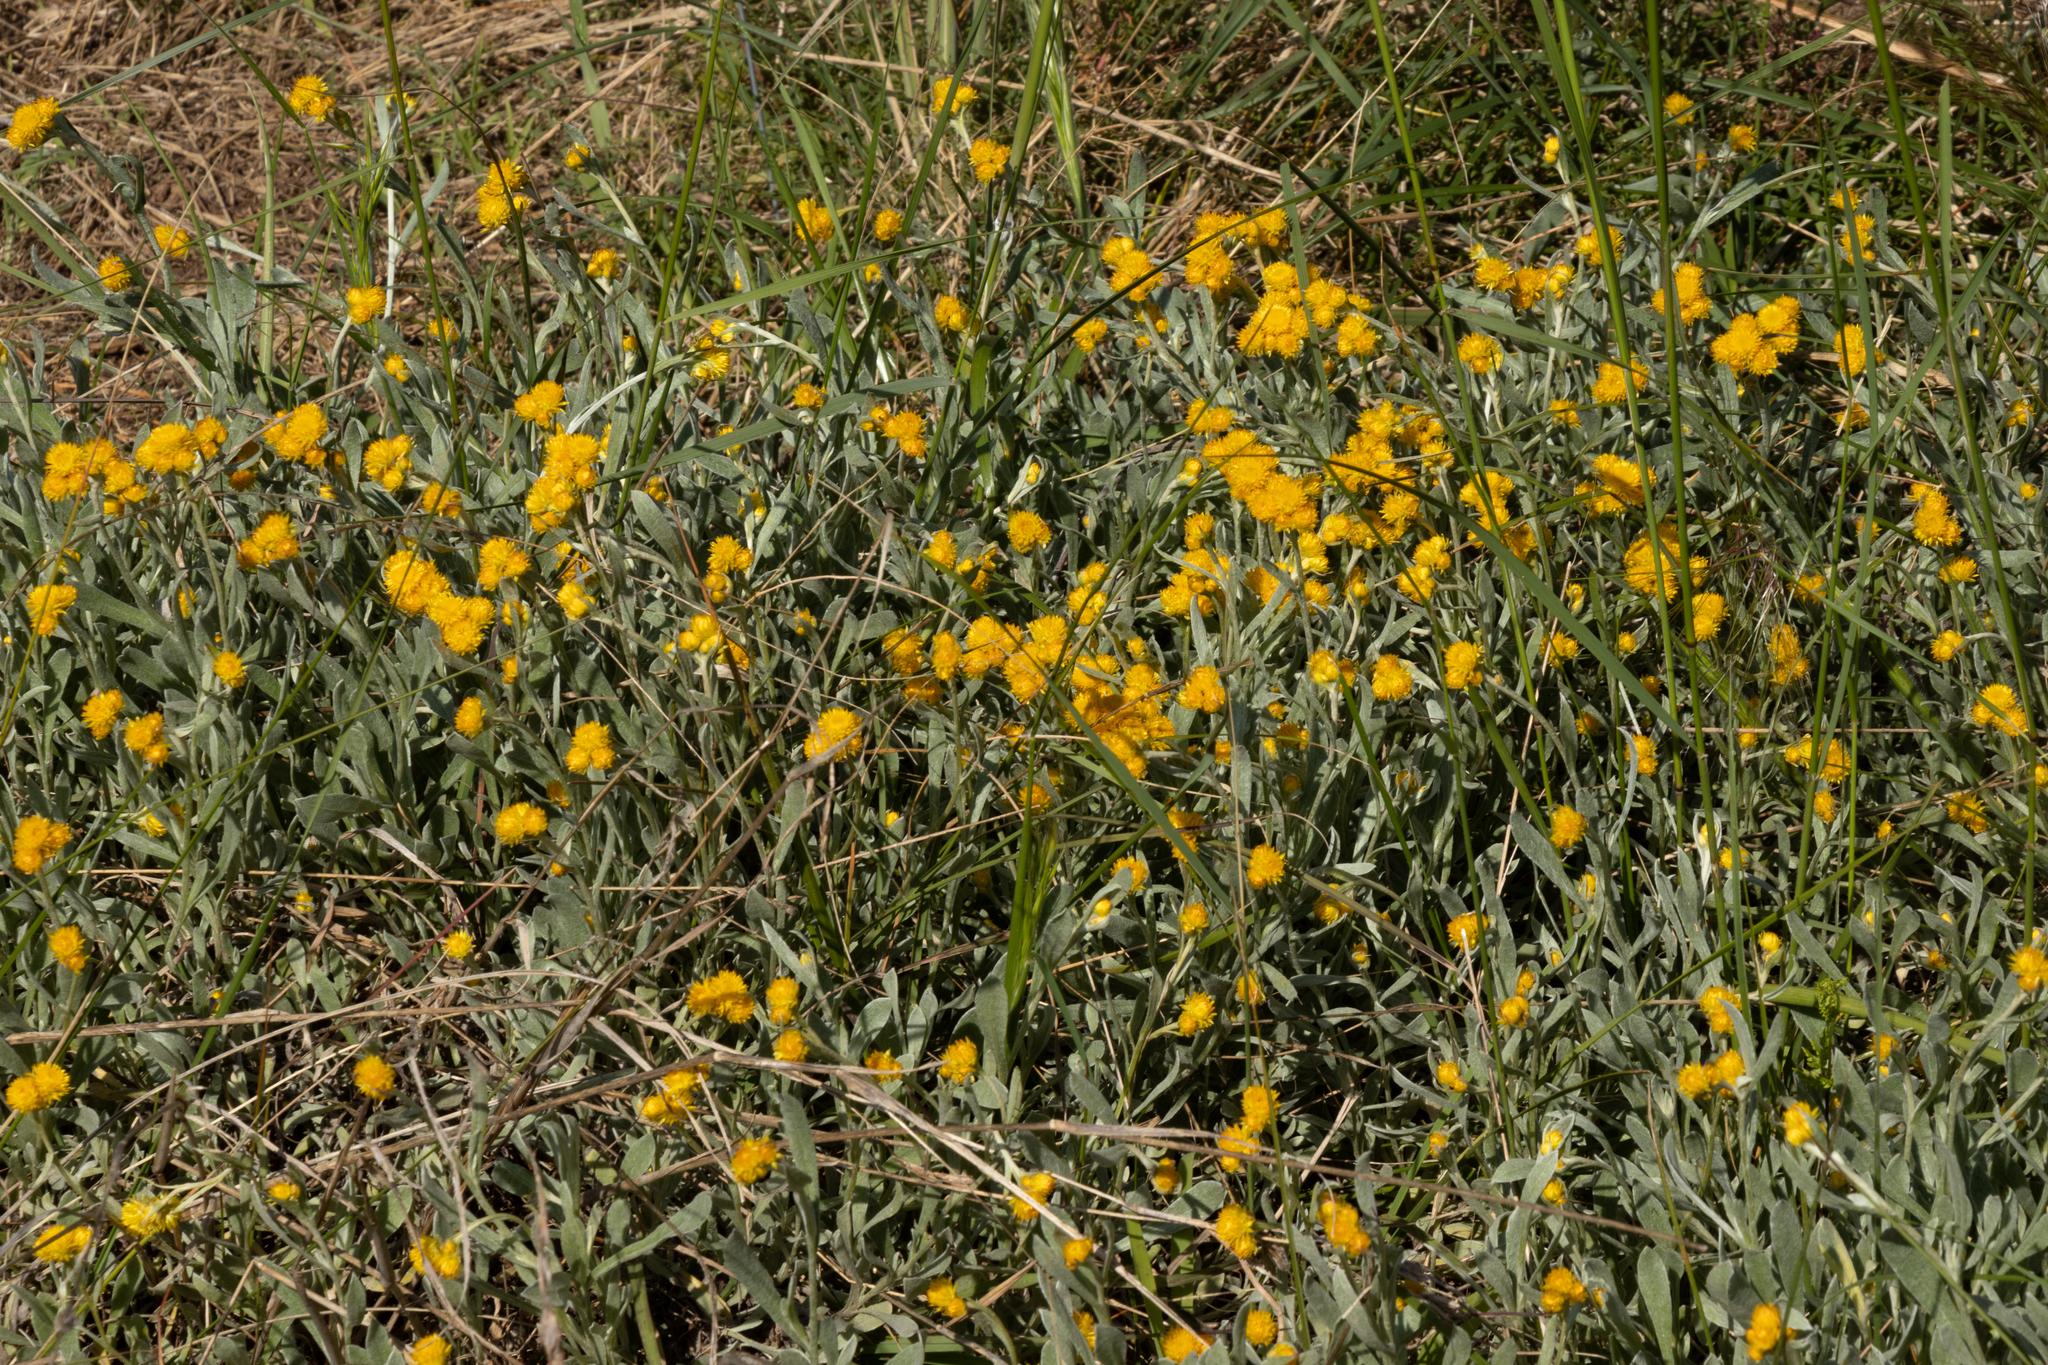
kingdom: Plantae
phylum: Tracheophyta
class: Magnoliopsida
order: Asterales
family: Asteraceae
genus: Chrysocephalum
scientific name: Chrysocephalum apiculatum
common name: Common everlasting
